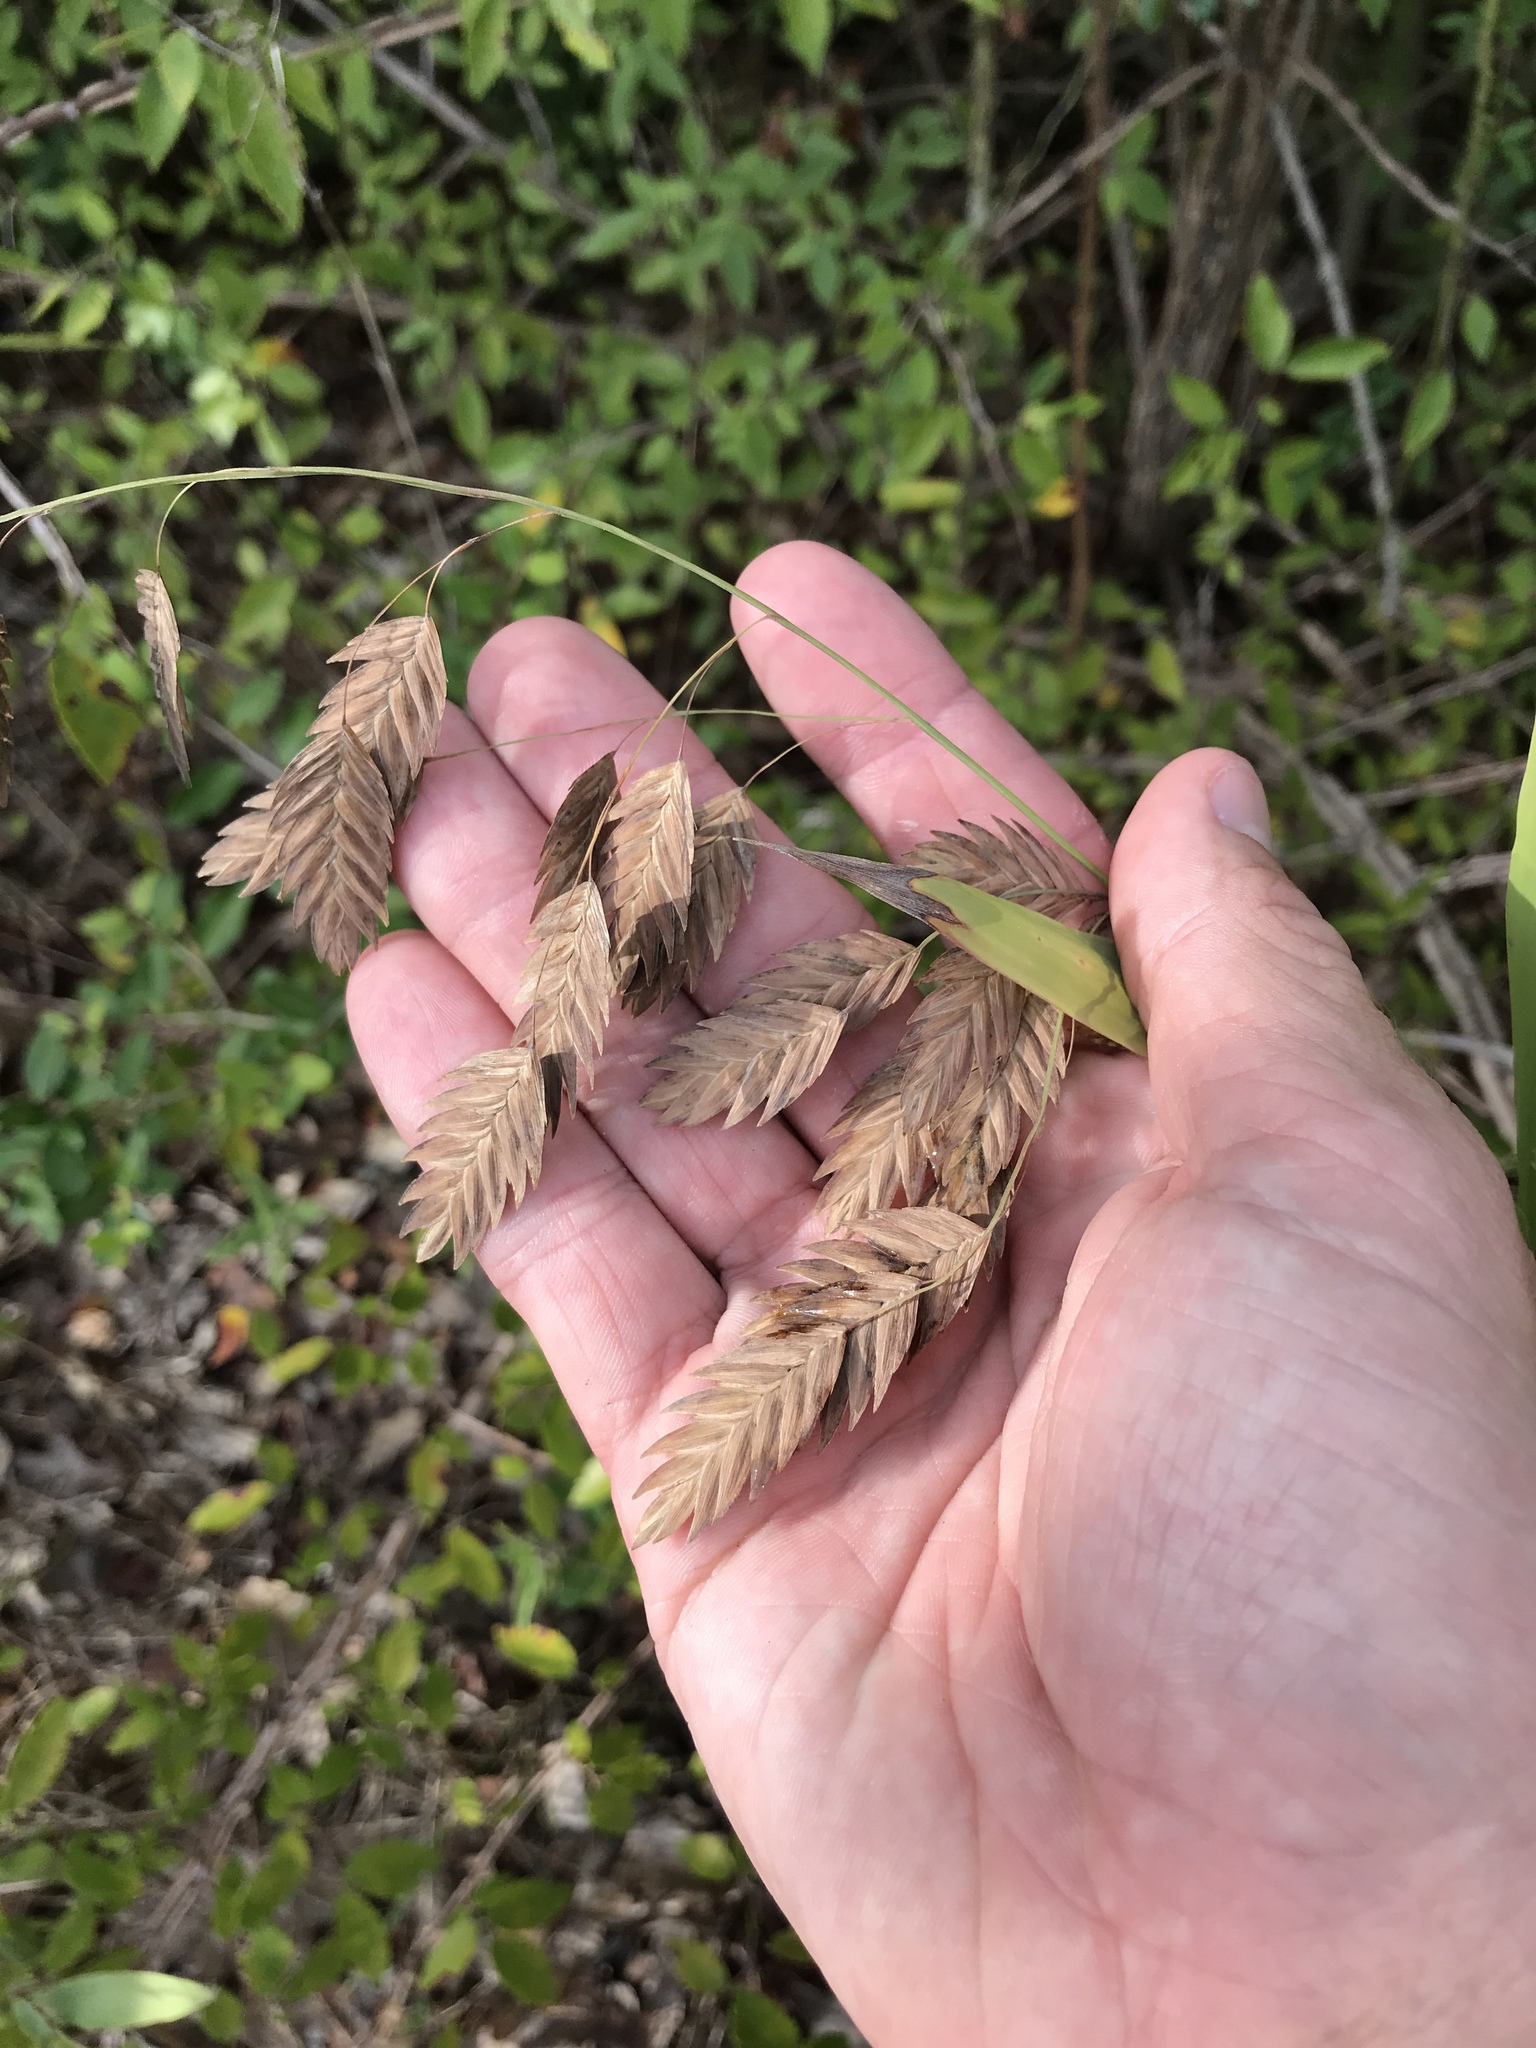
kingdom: Plantae
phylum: Tracheophyta
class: Liliopsida
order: Poales
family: Poaceae
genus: Chasmanthium
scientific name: Chasmanthium latifolium
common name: Broad-leaved chasmanthium
